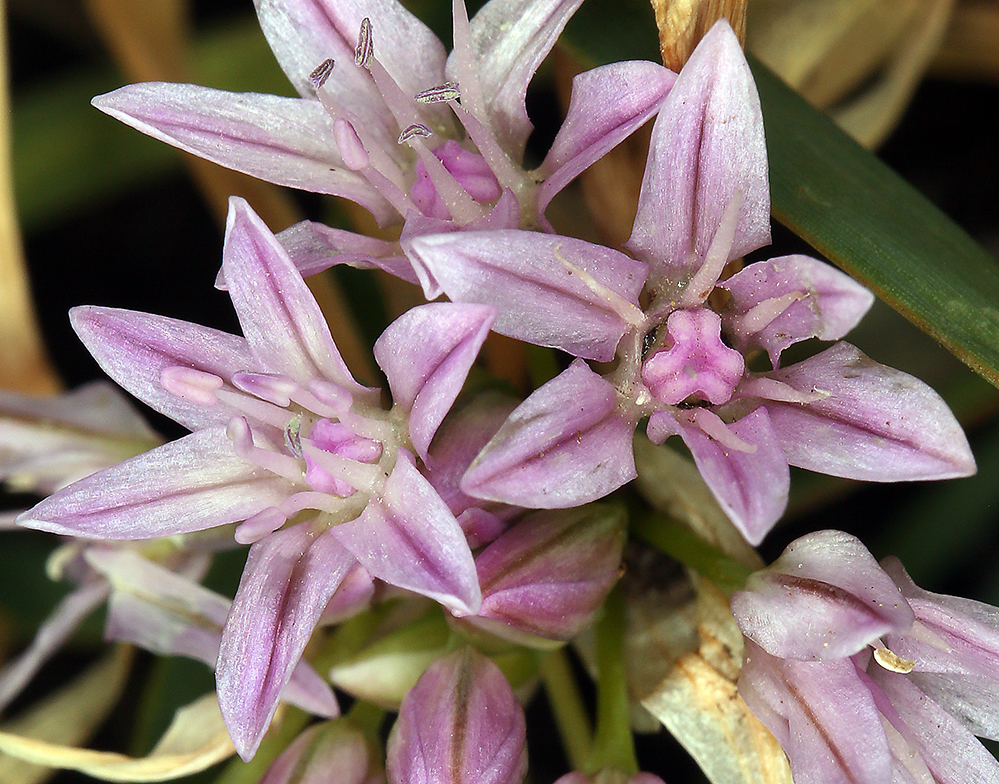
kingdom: Plantae
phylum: Tracheophyta
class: Liliopsida
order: Asparagales
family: Amaryllidaceae
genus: Allium
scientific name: Allium crenulatum
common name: Olympic onion
